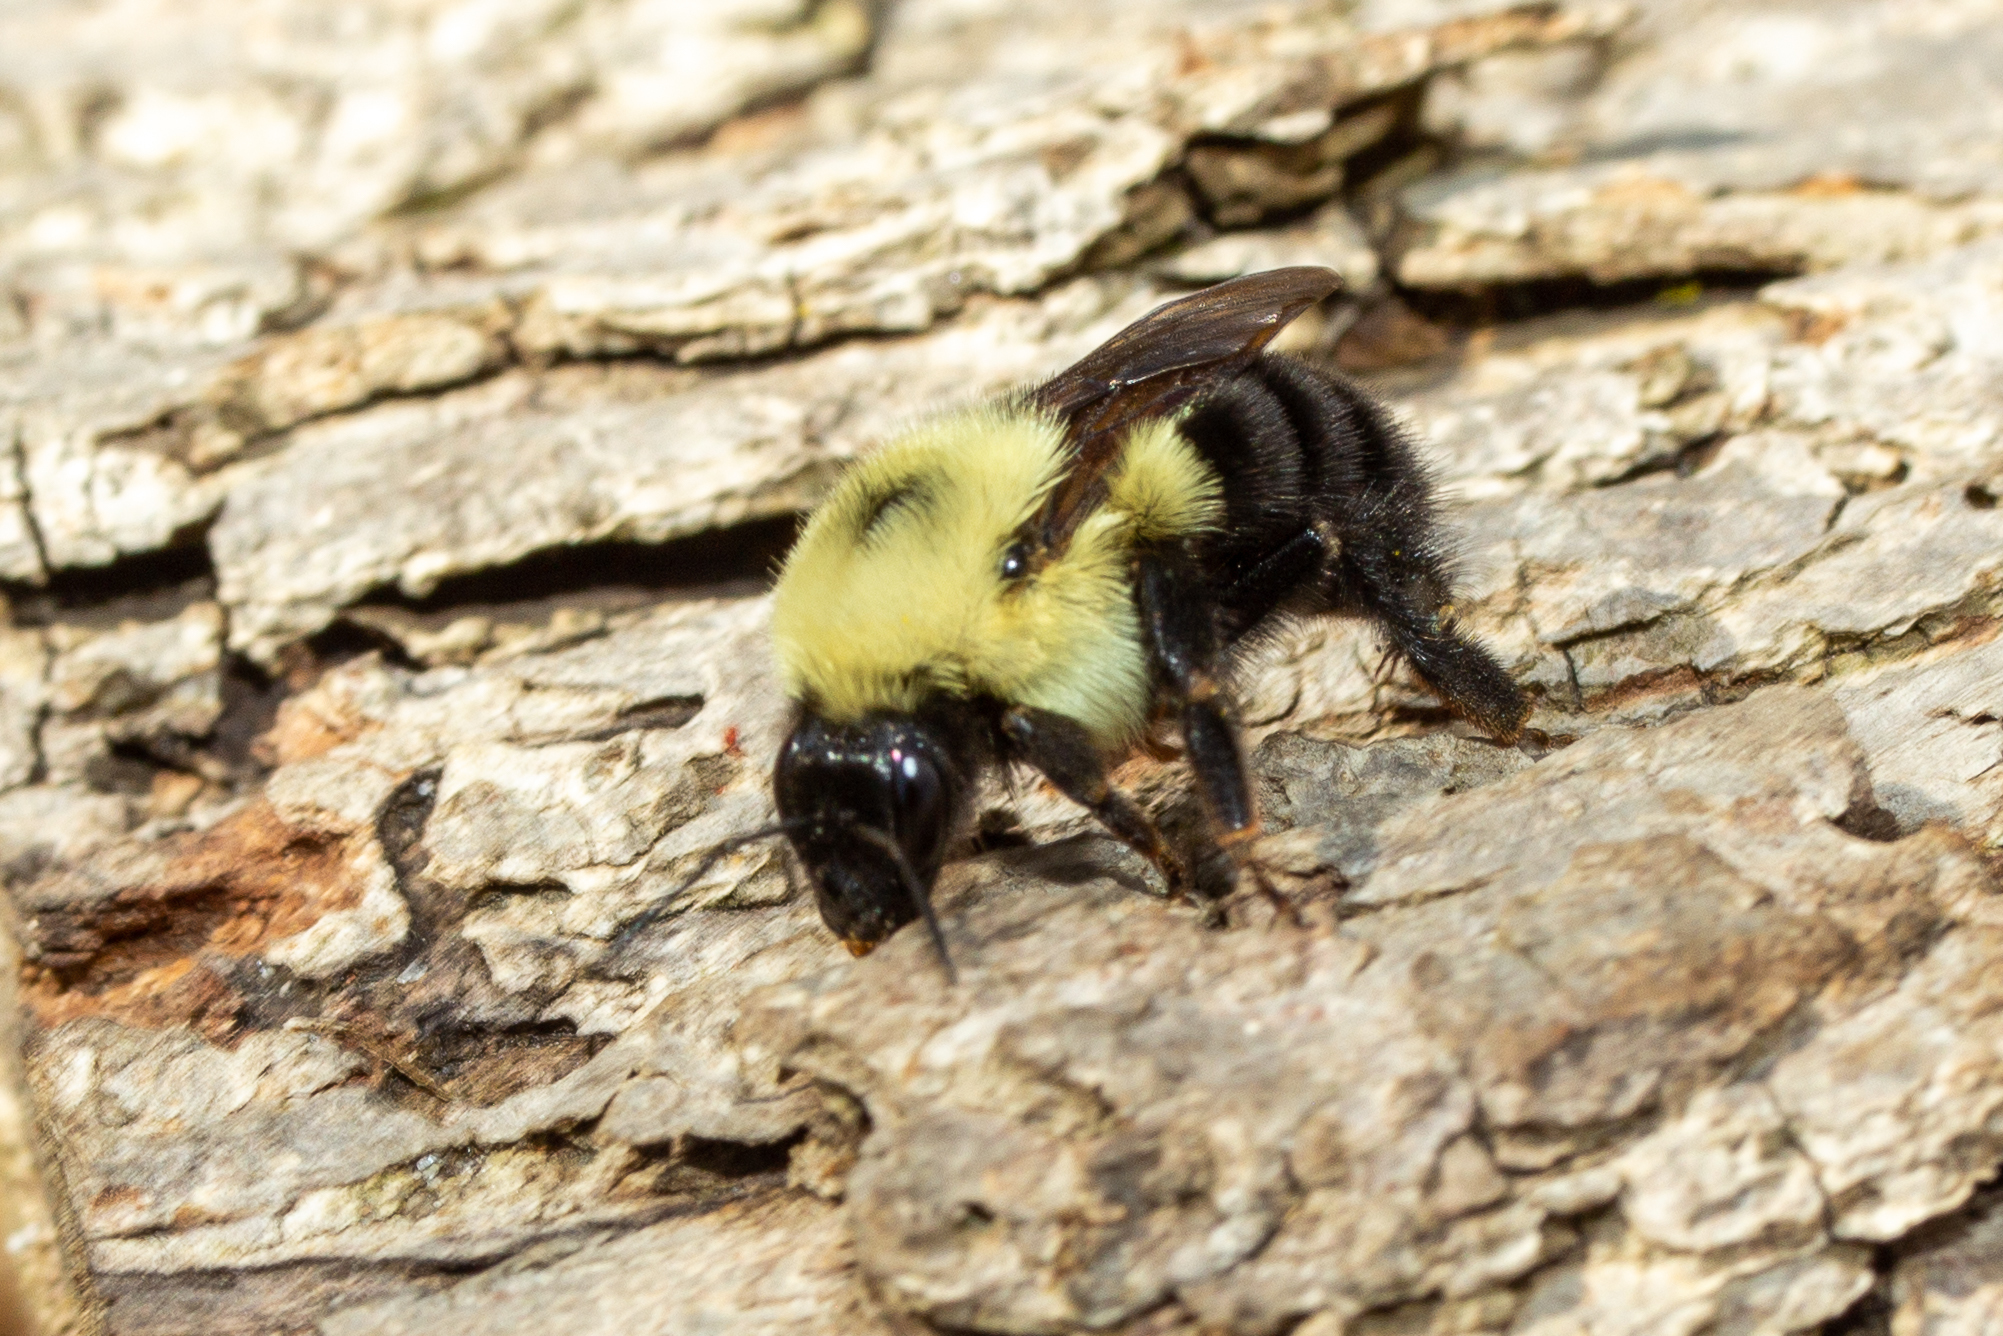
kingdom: Animalia
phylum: Arthropoda
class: Insecta
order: Hymenoptera
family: Apidae
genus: Bombus
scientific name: Bombus bimaculatus
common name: Two-spotted bumble bee
